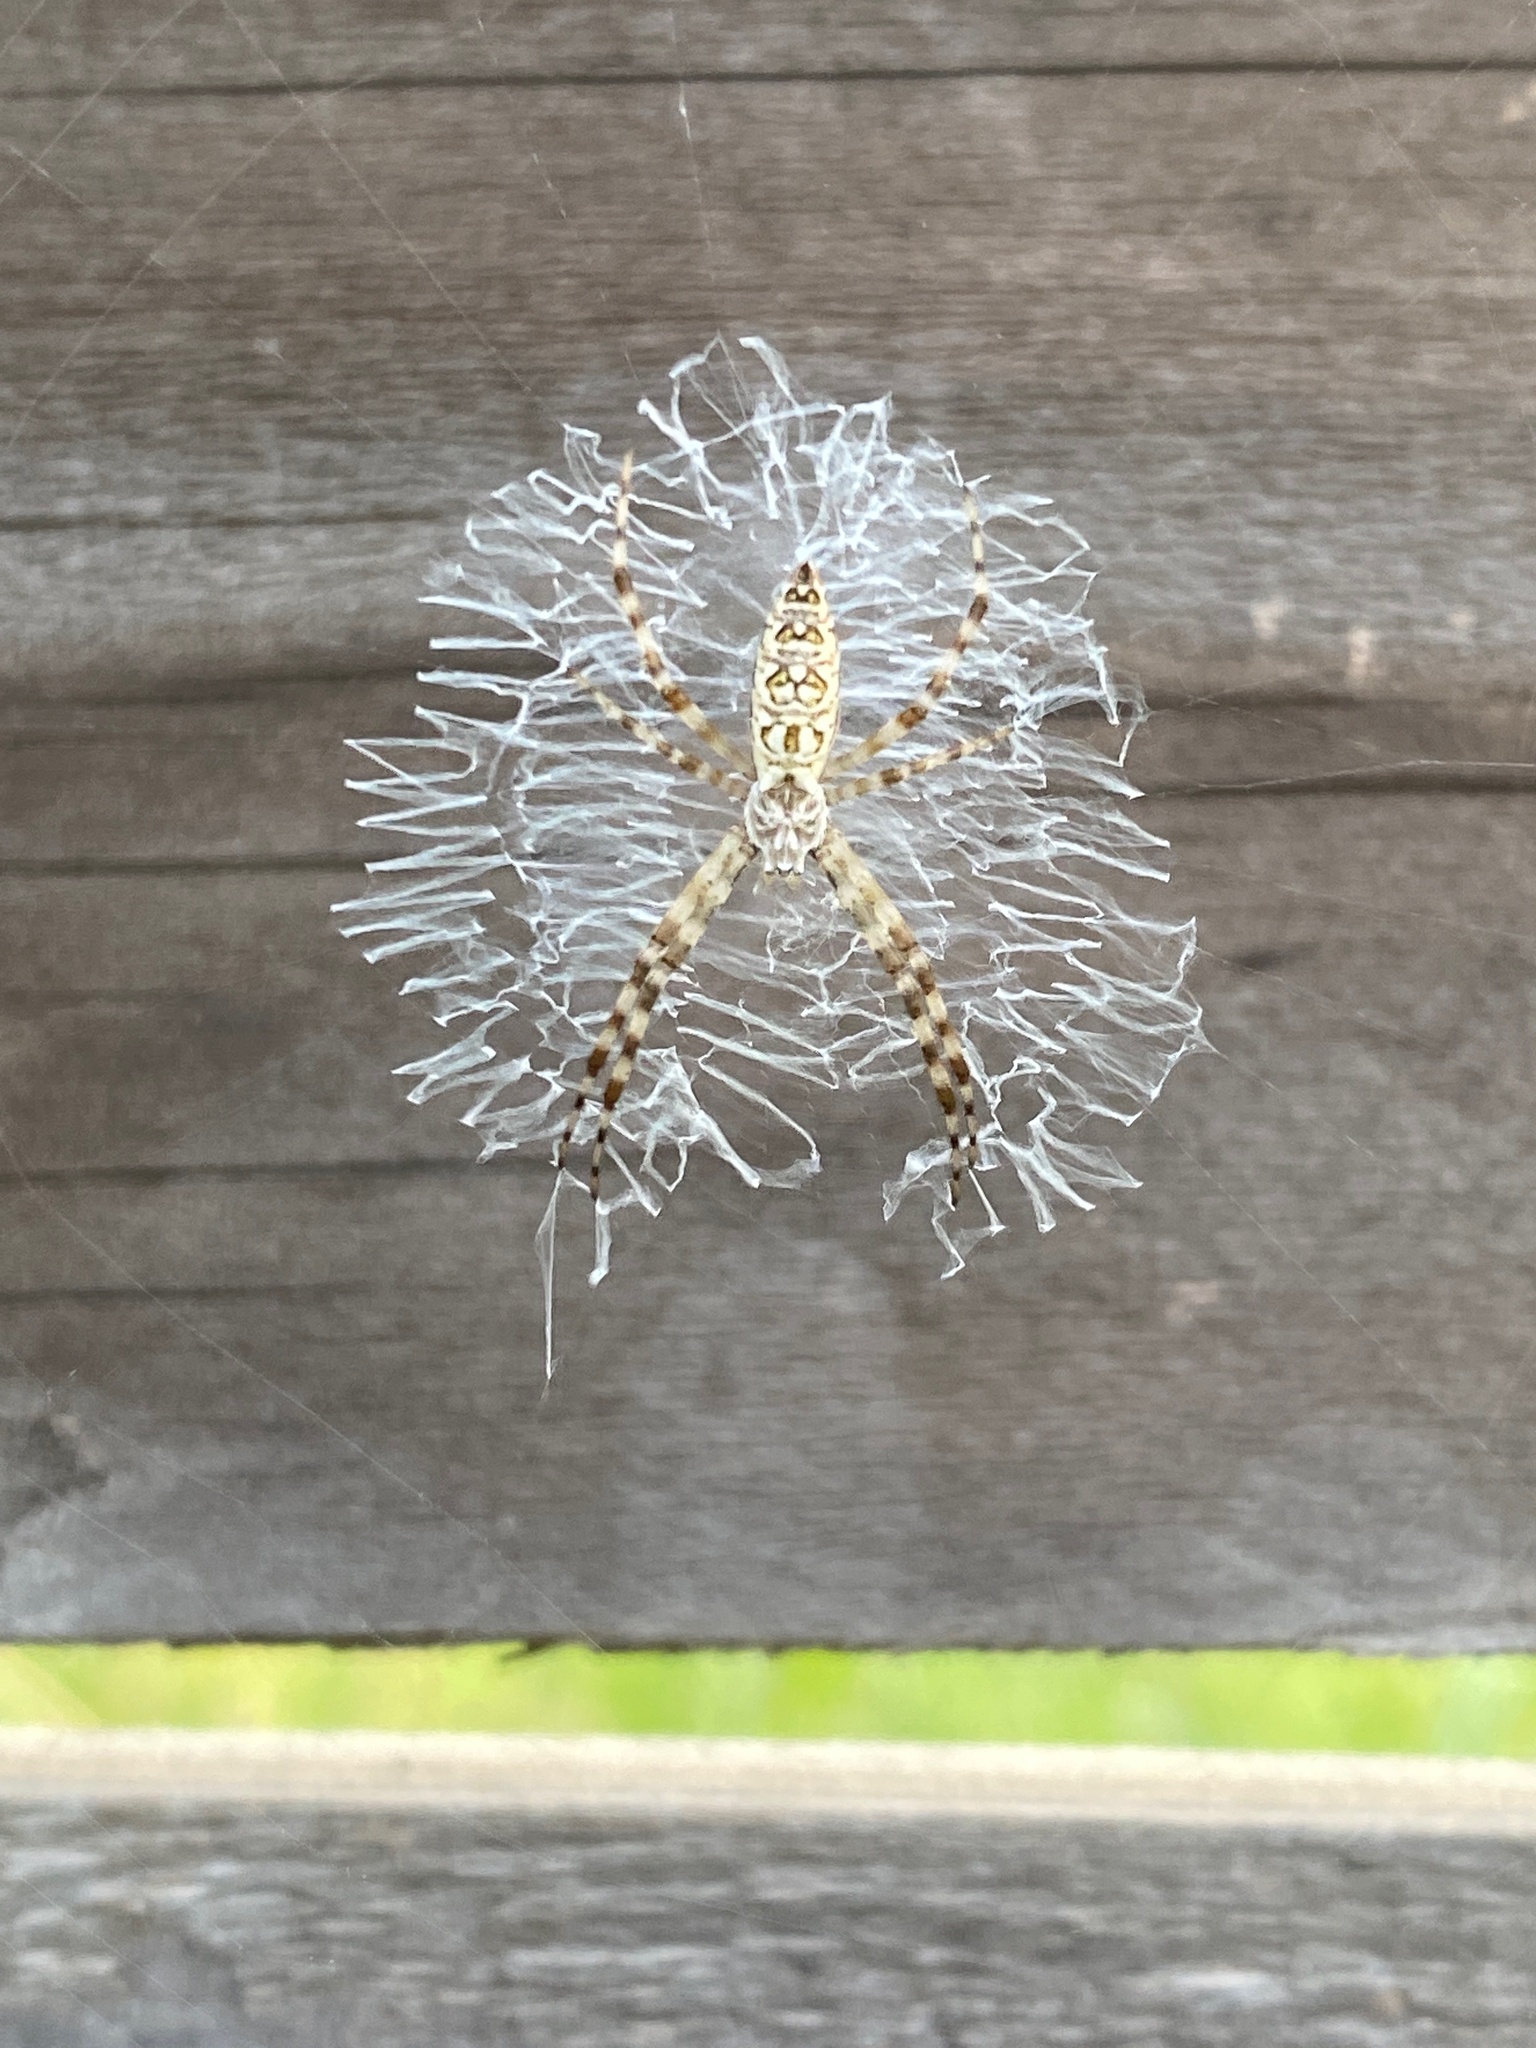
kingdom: Animalia
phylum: Arthropoda
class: Arachnida
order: Araneae
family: Araneidae
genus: Argiope
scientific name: Argiope aurantia
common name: Orb weavers
